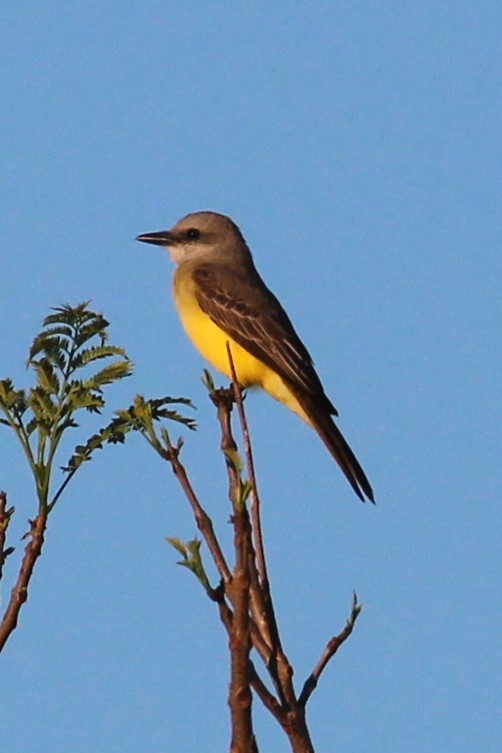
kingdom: Animalia
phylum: Chordata
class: Aves
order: Passeriformes
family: Tyrannidae
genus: Tyrannus
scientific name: Tyrannus melancholicus
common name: Tropical kingbird
